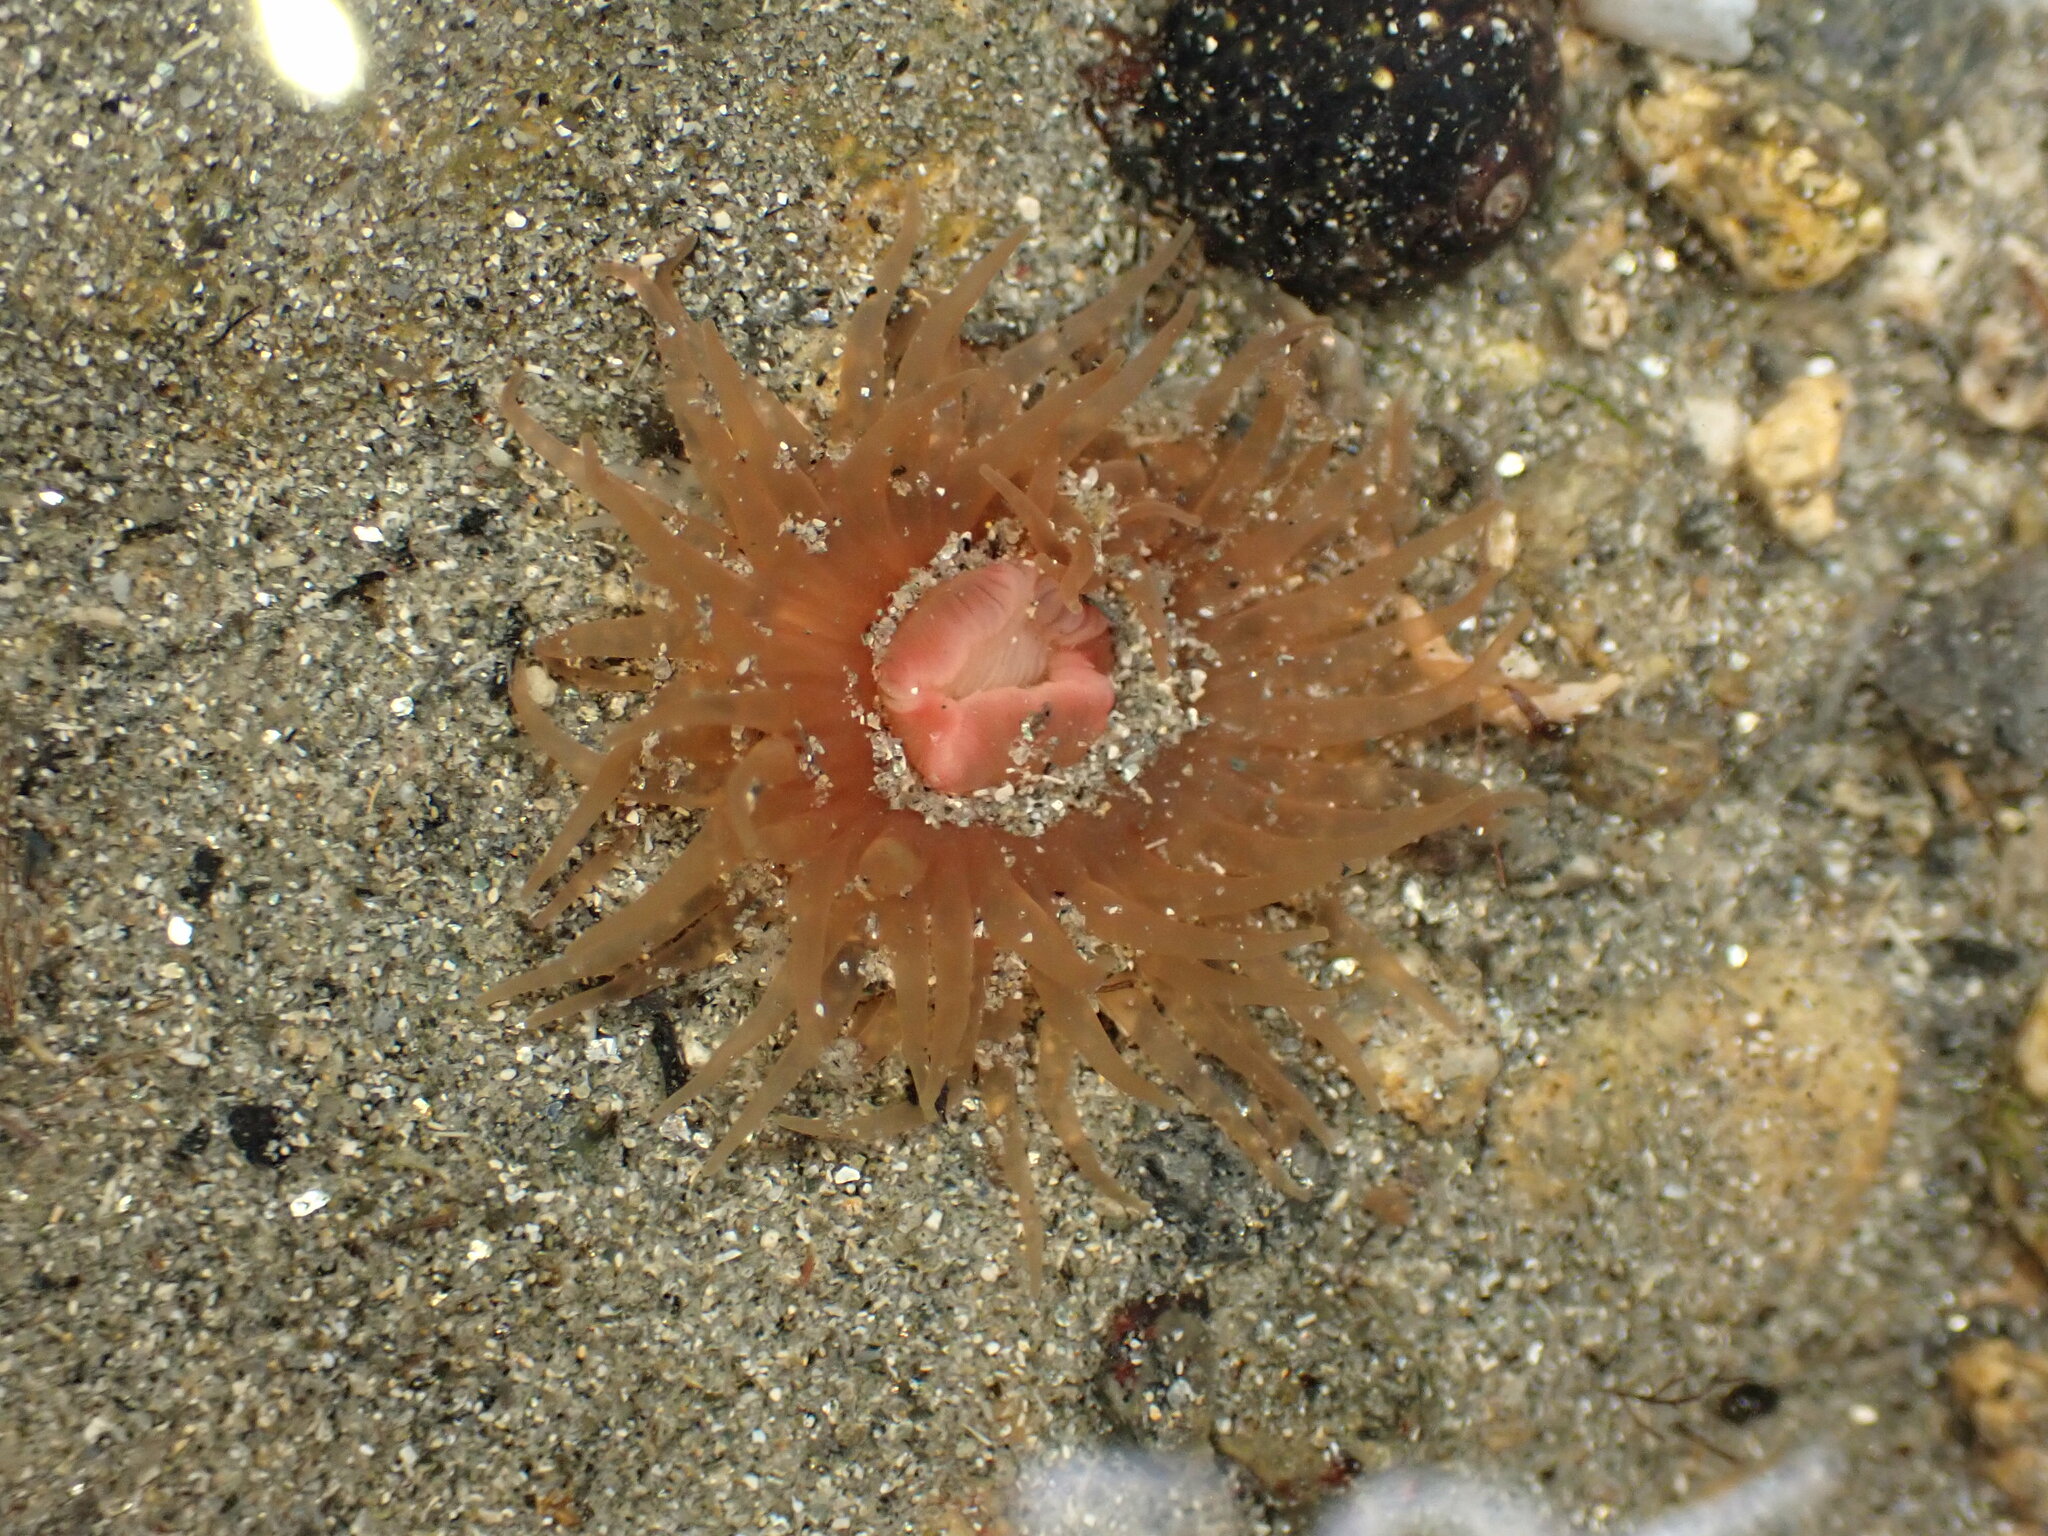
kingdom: Animalia
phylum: Cnidaria
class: Anthozoa
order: Actiniaria
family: Actiniidae
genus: Isactinia
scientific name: Isactinia olivacea
